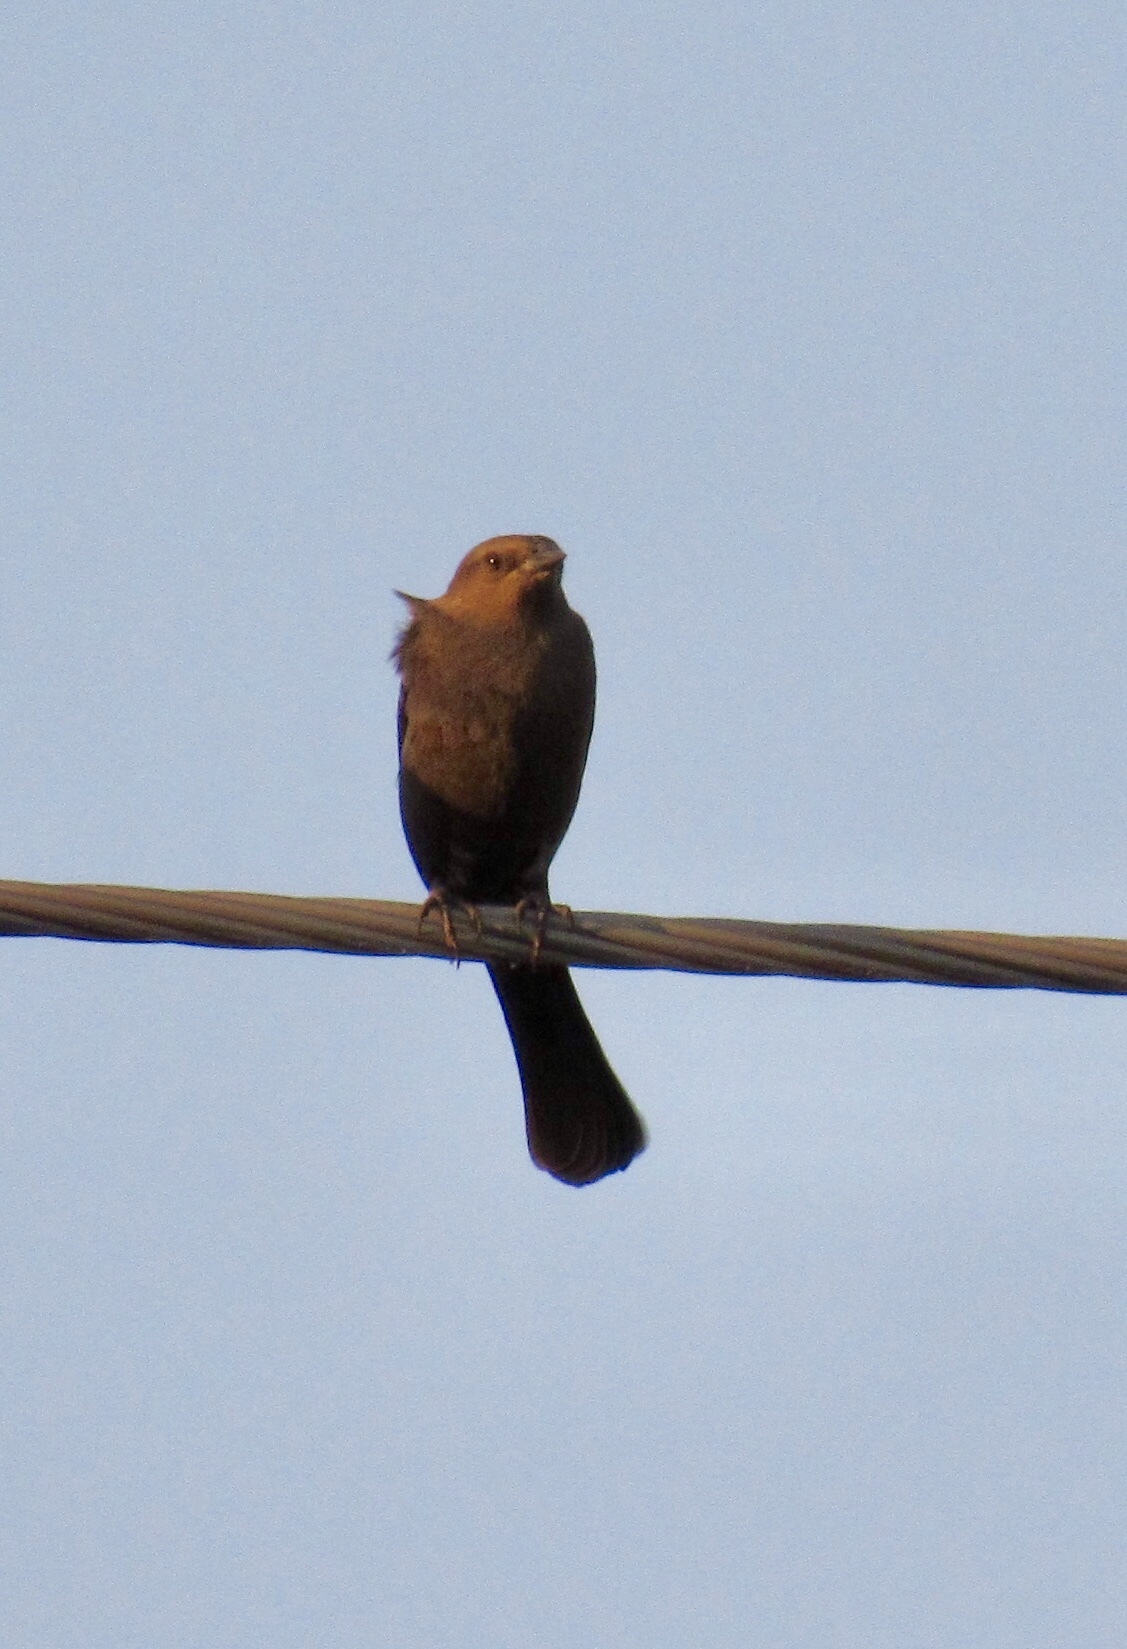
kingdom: Animalia
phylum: Chordata
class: Aves
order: Passeriformes
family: Icteridae
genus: Euphagus
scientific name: Euphagus cyanocephalus
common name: Brewer's blackbird
